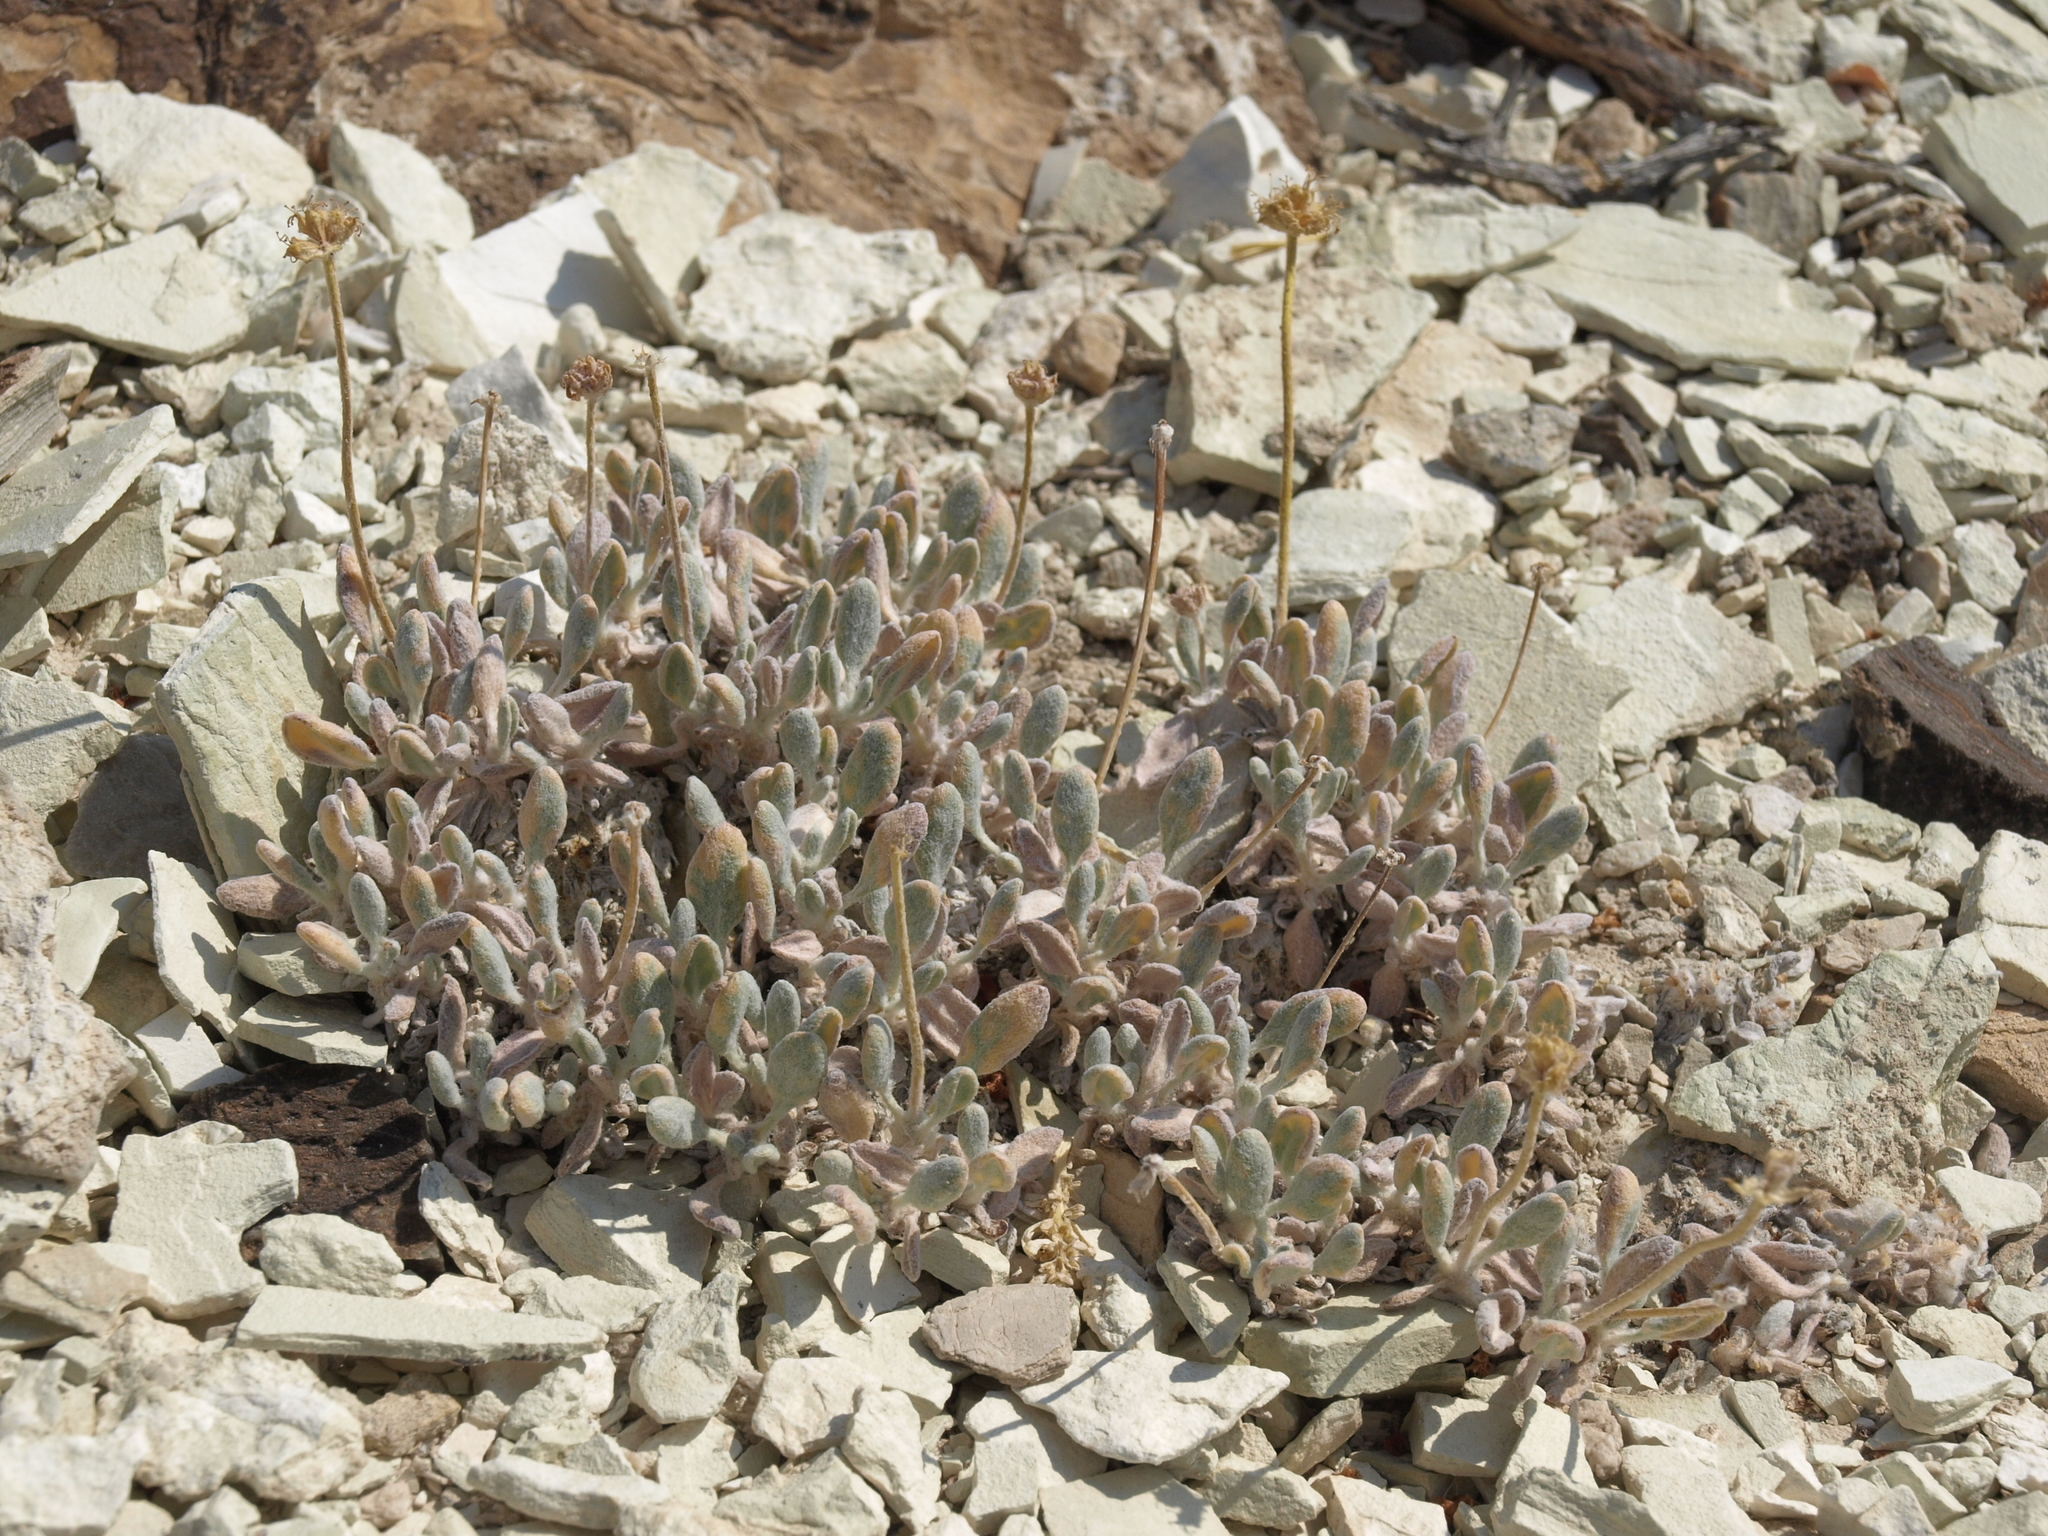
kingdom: Plantae
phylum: Tracheophyta
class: Magnoliopsida
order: Caryophyllales
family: Polygonaceae
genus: Eriogonum
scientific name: Eriogonum tiehmii
